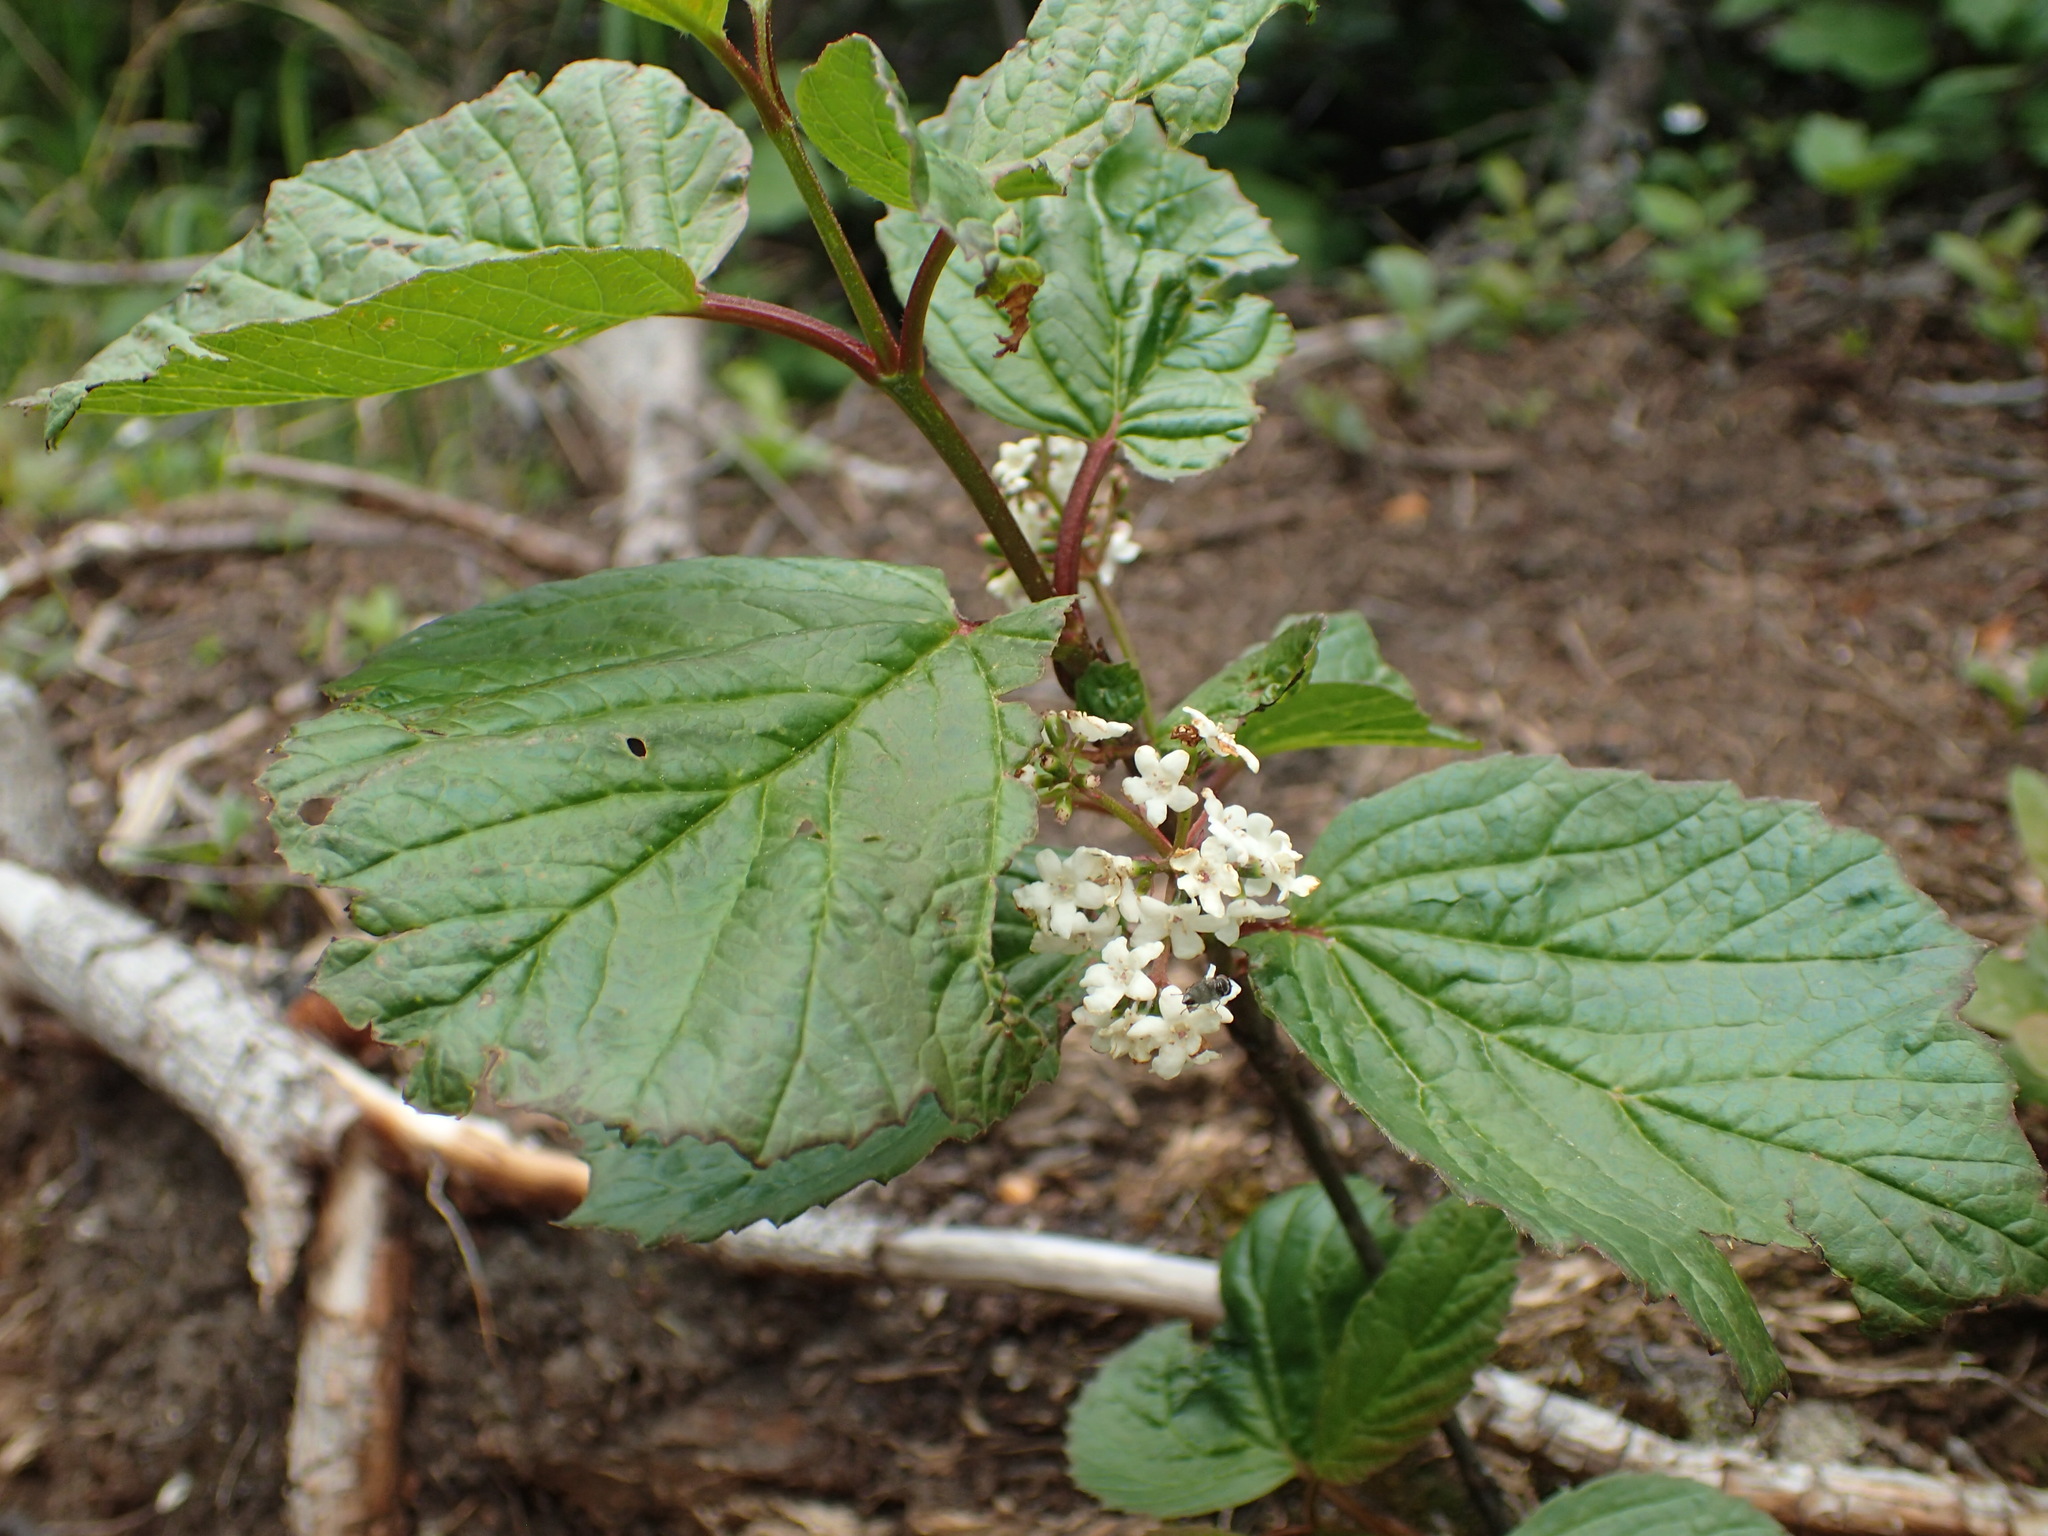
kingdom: Plantae
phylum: Tracheophyta
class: Magnoliopsida
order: Dipsacales
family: Viburnaceae
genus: Viburnum
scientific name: Viburnum edule
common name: Mooseberry
